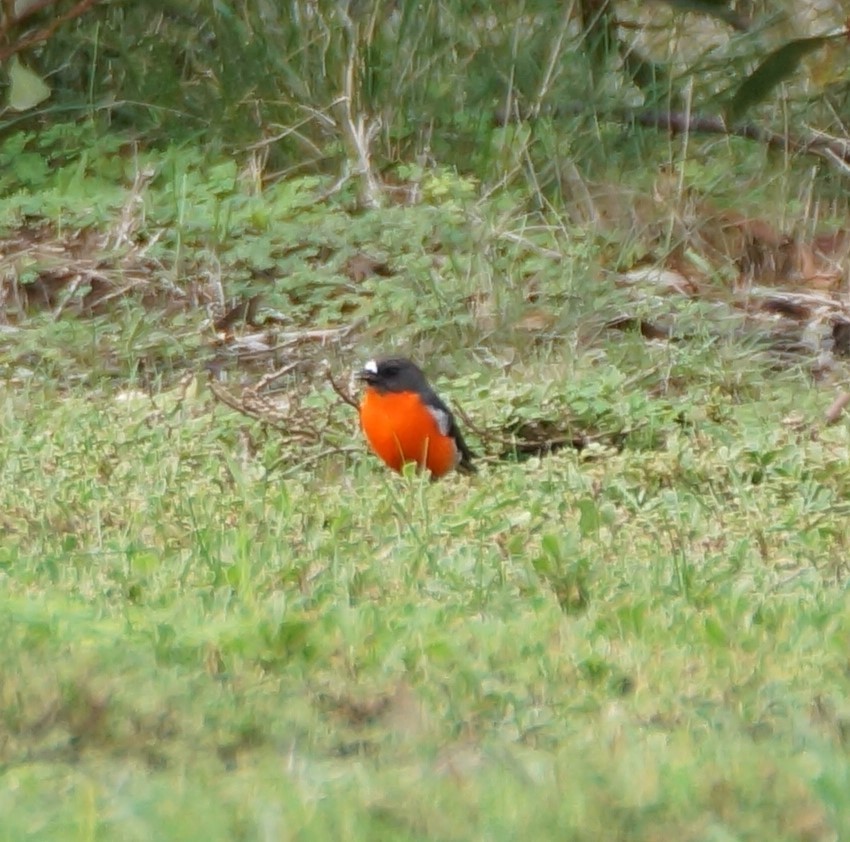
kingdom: Animalia
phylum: Chordata
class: Aves
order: Passeriformes
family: Petroicidae
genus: Petroica
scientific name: Petroica phoenicea
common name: Flame robin
